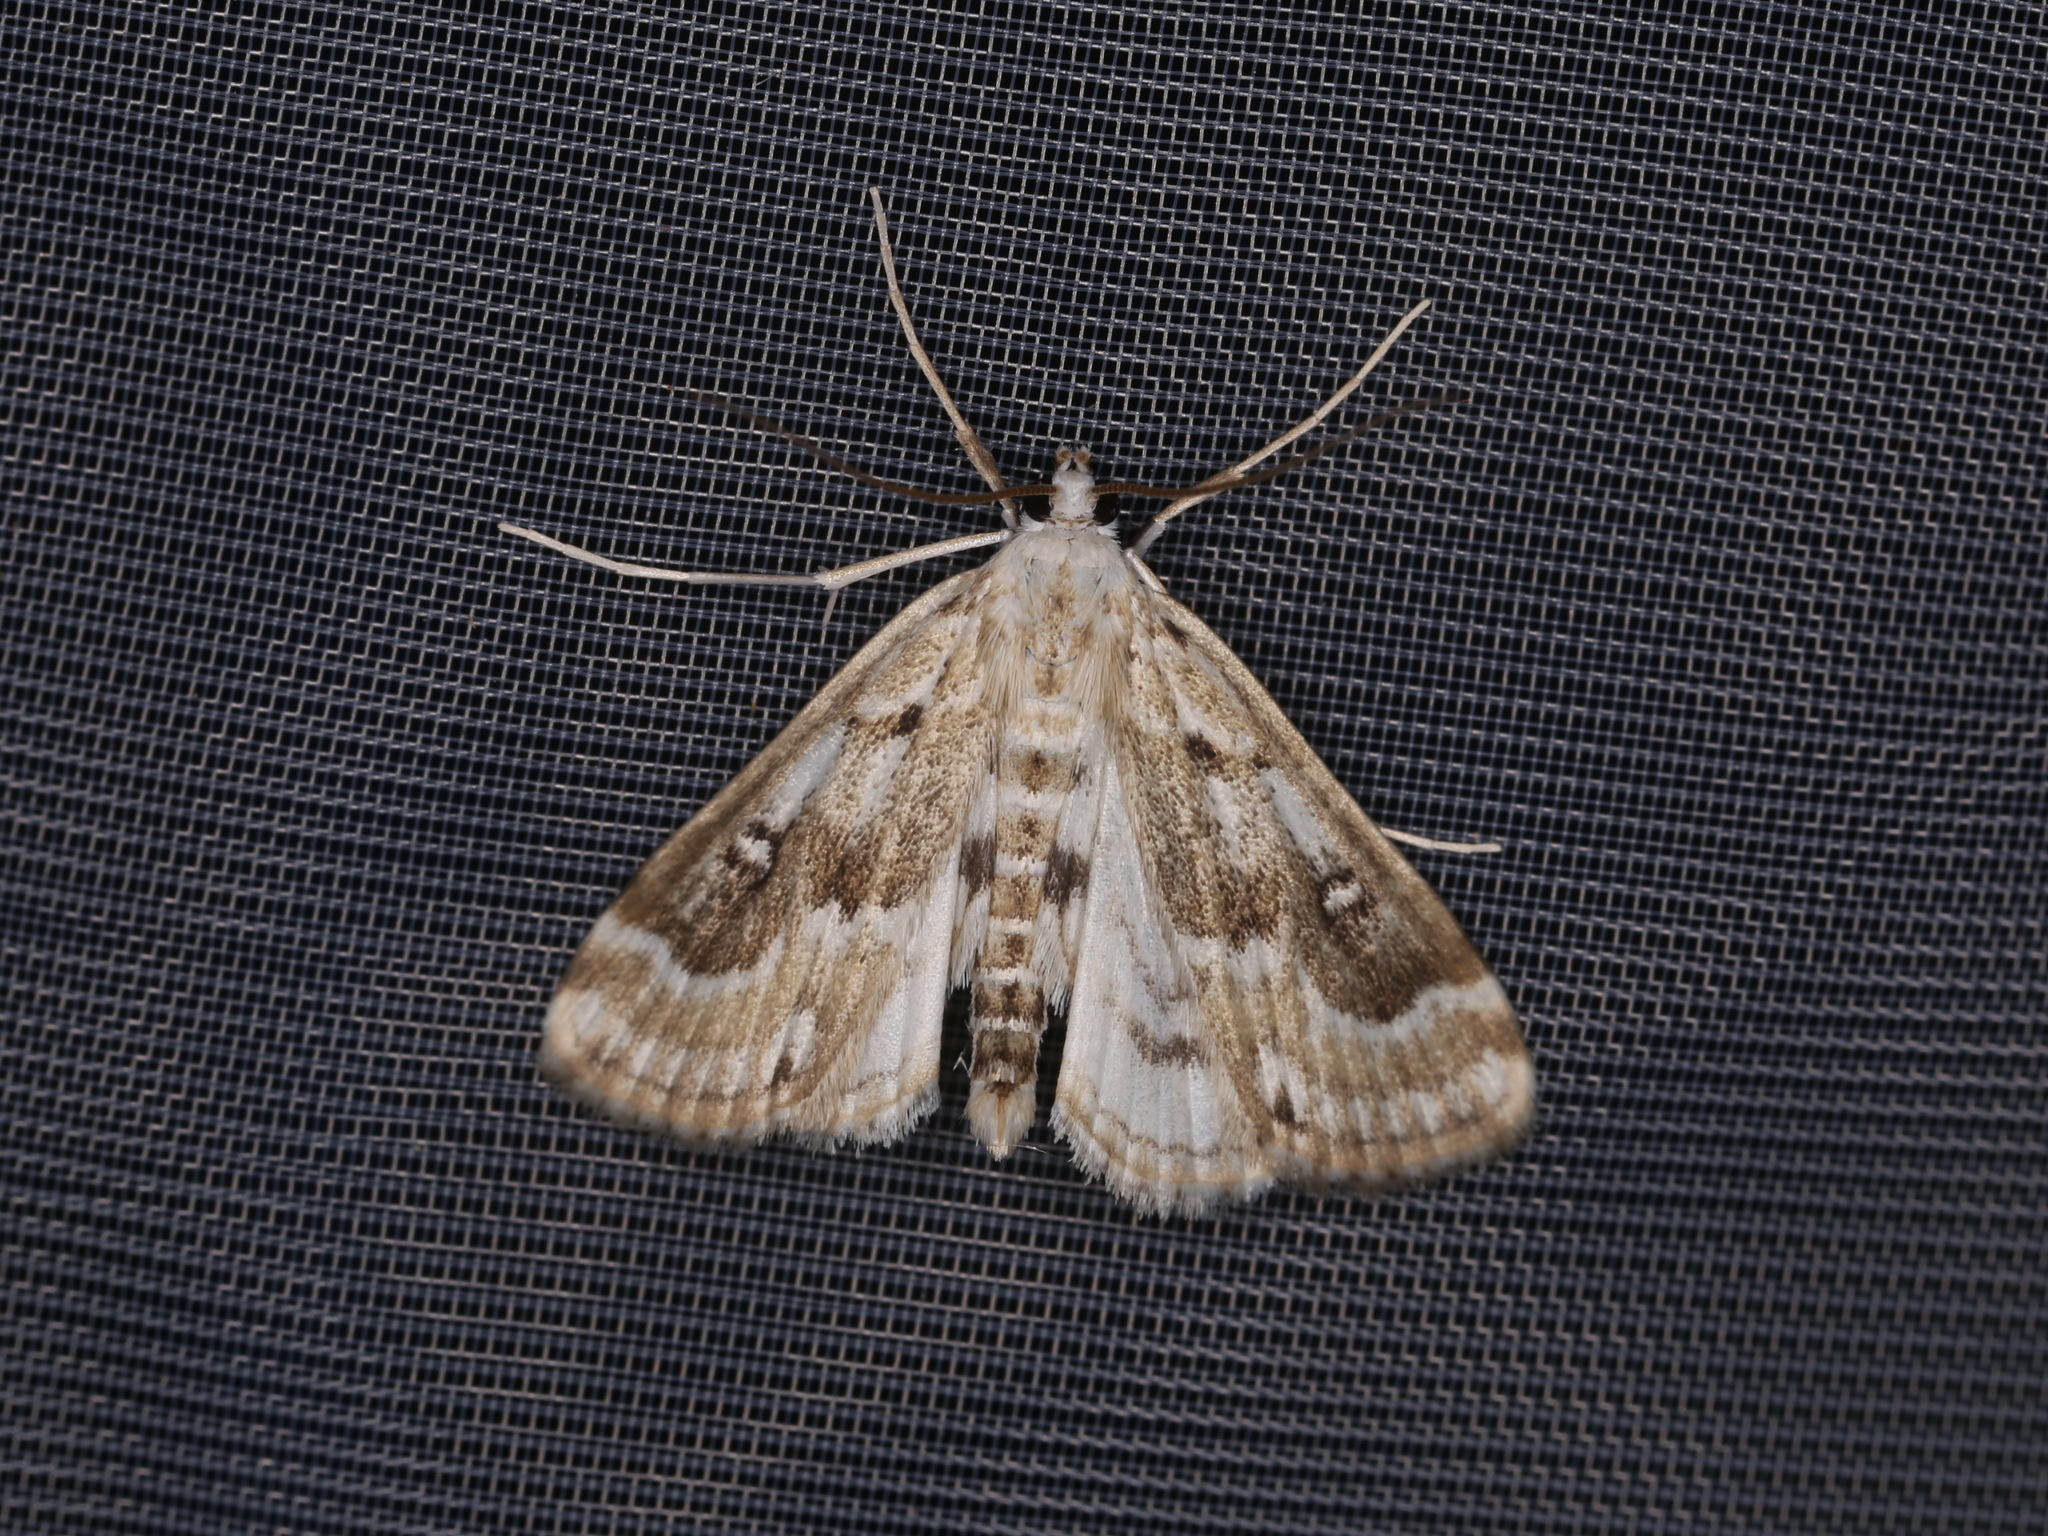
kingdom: Animalia
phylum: Arthropoda
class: Insecta
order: Lepidoptera
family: Crambidae
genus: Parapoynx
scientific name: Parapoynx stratiotata
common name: Ringed china-mark
